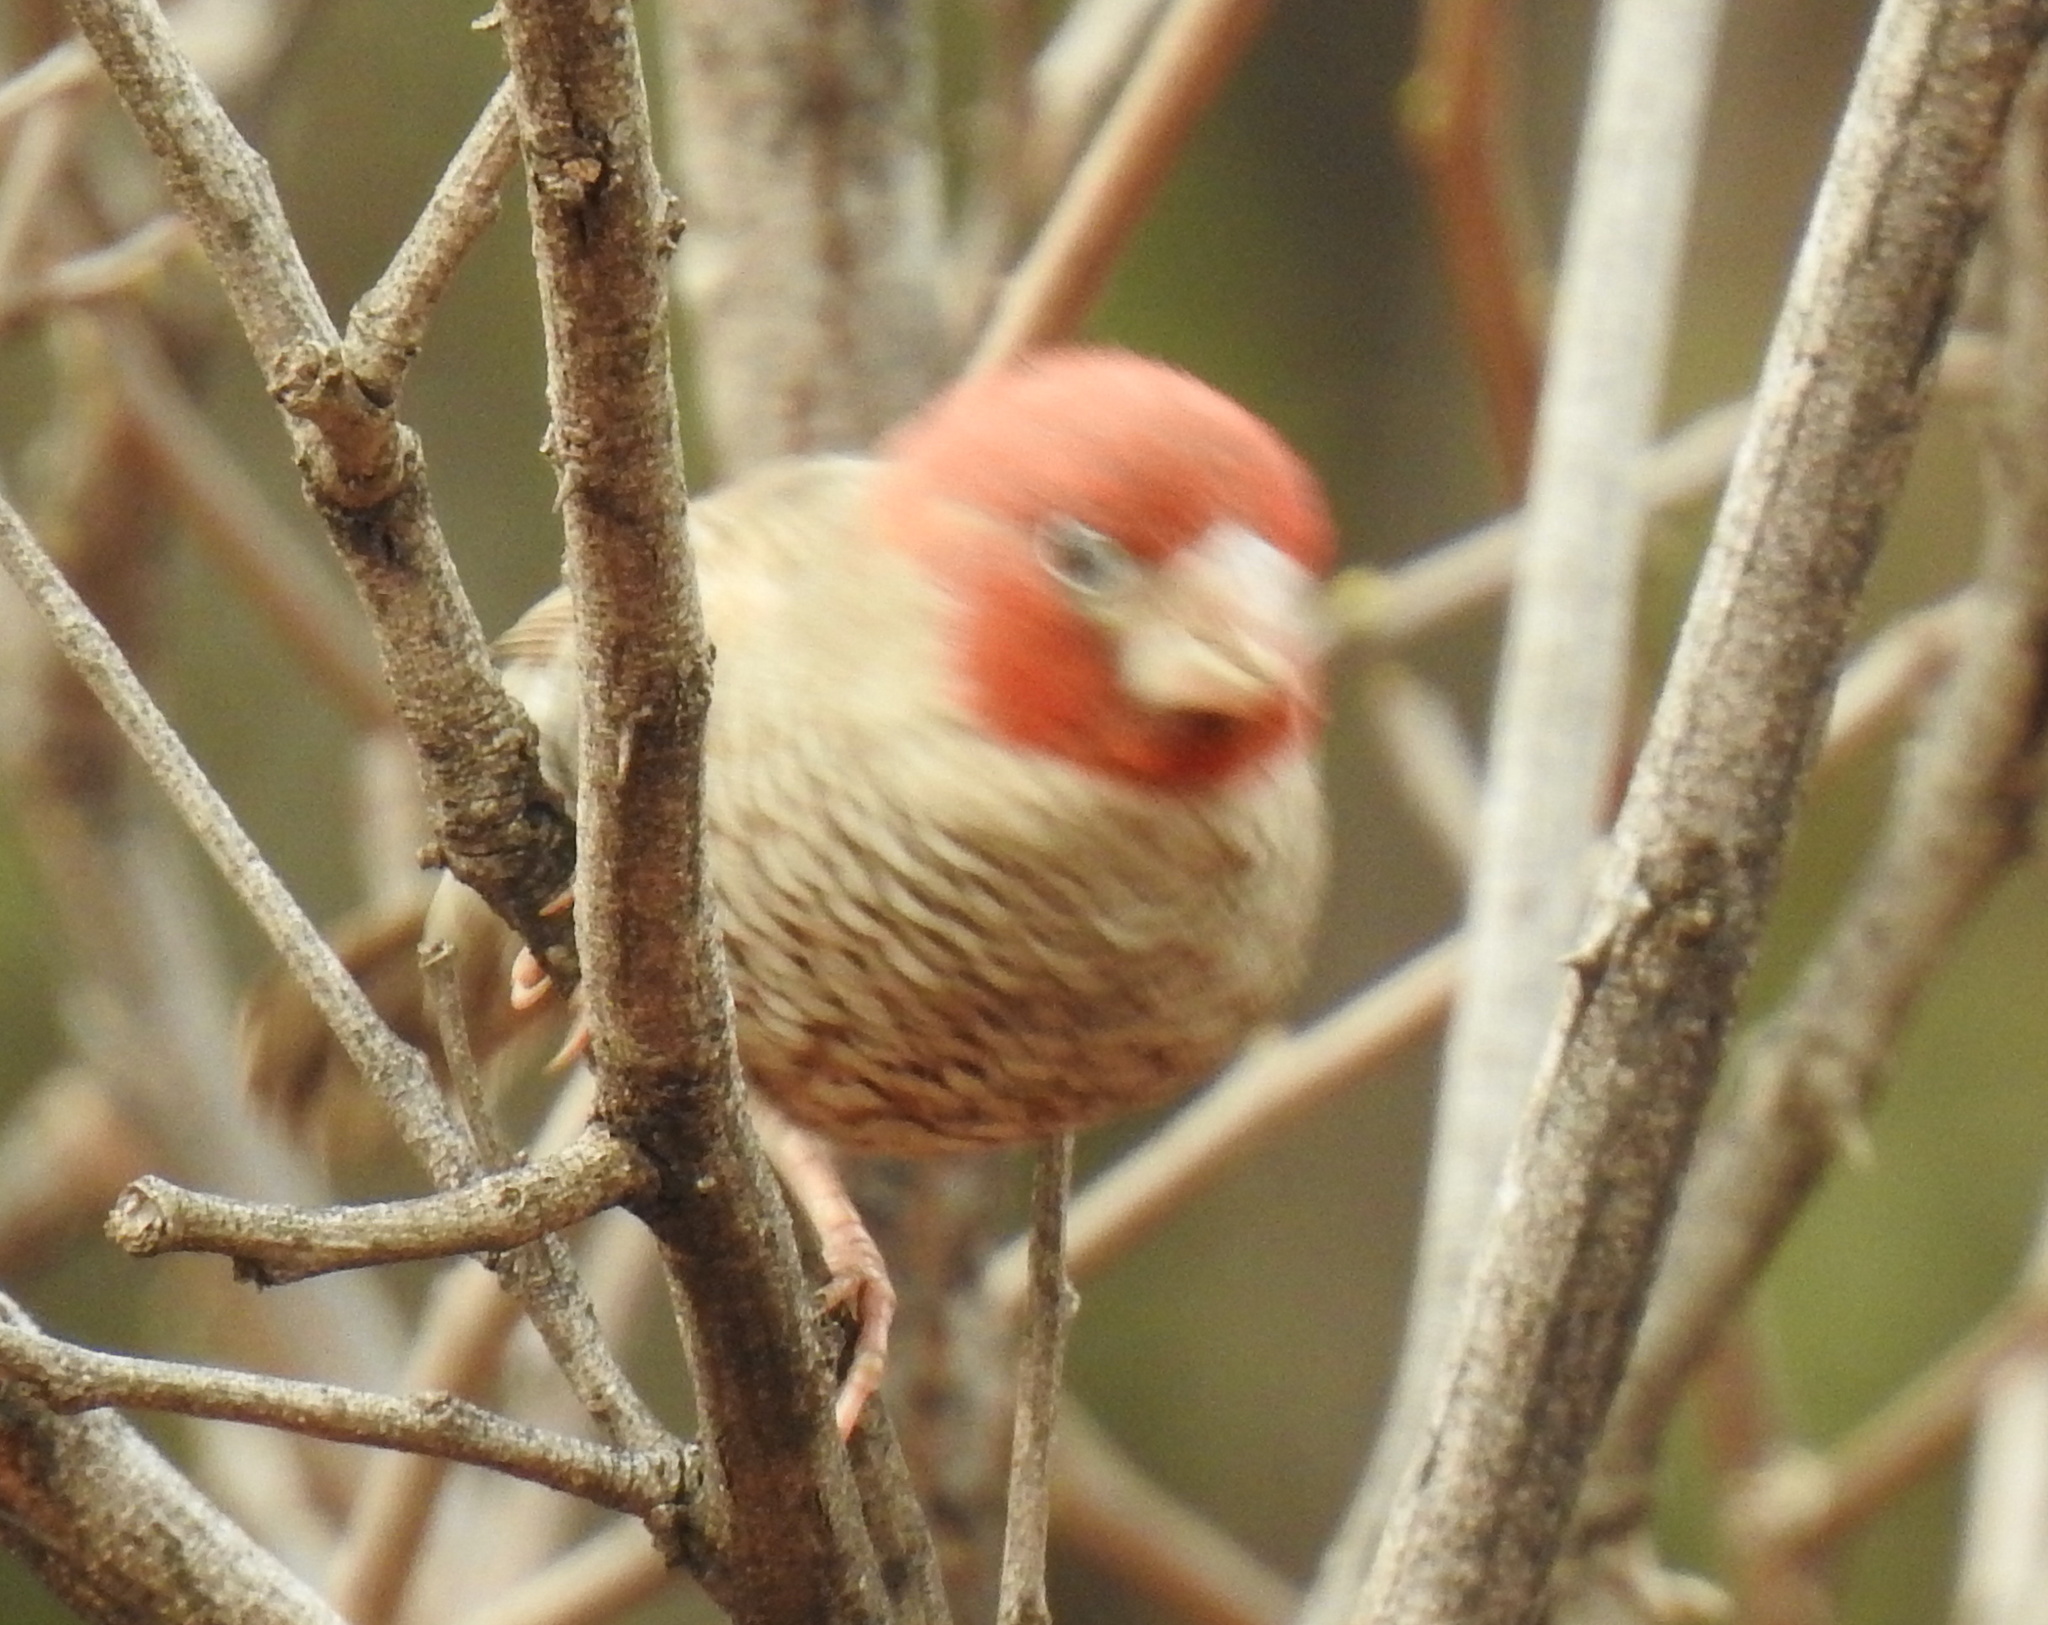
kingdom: Animalia
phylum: Chordata
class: Aves
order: Passeriformes
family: Estrildidae
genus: Amadina
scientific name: Amadina erythrocephala
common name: Red-headed finch
